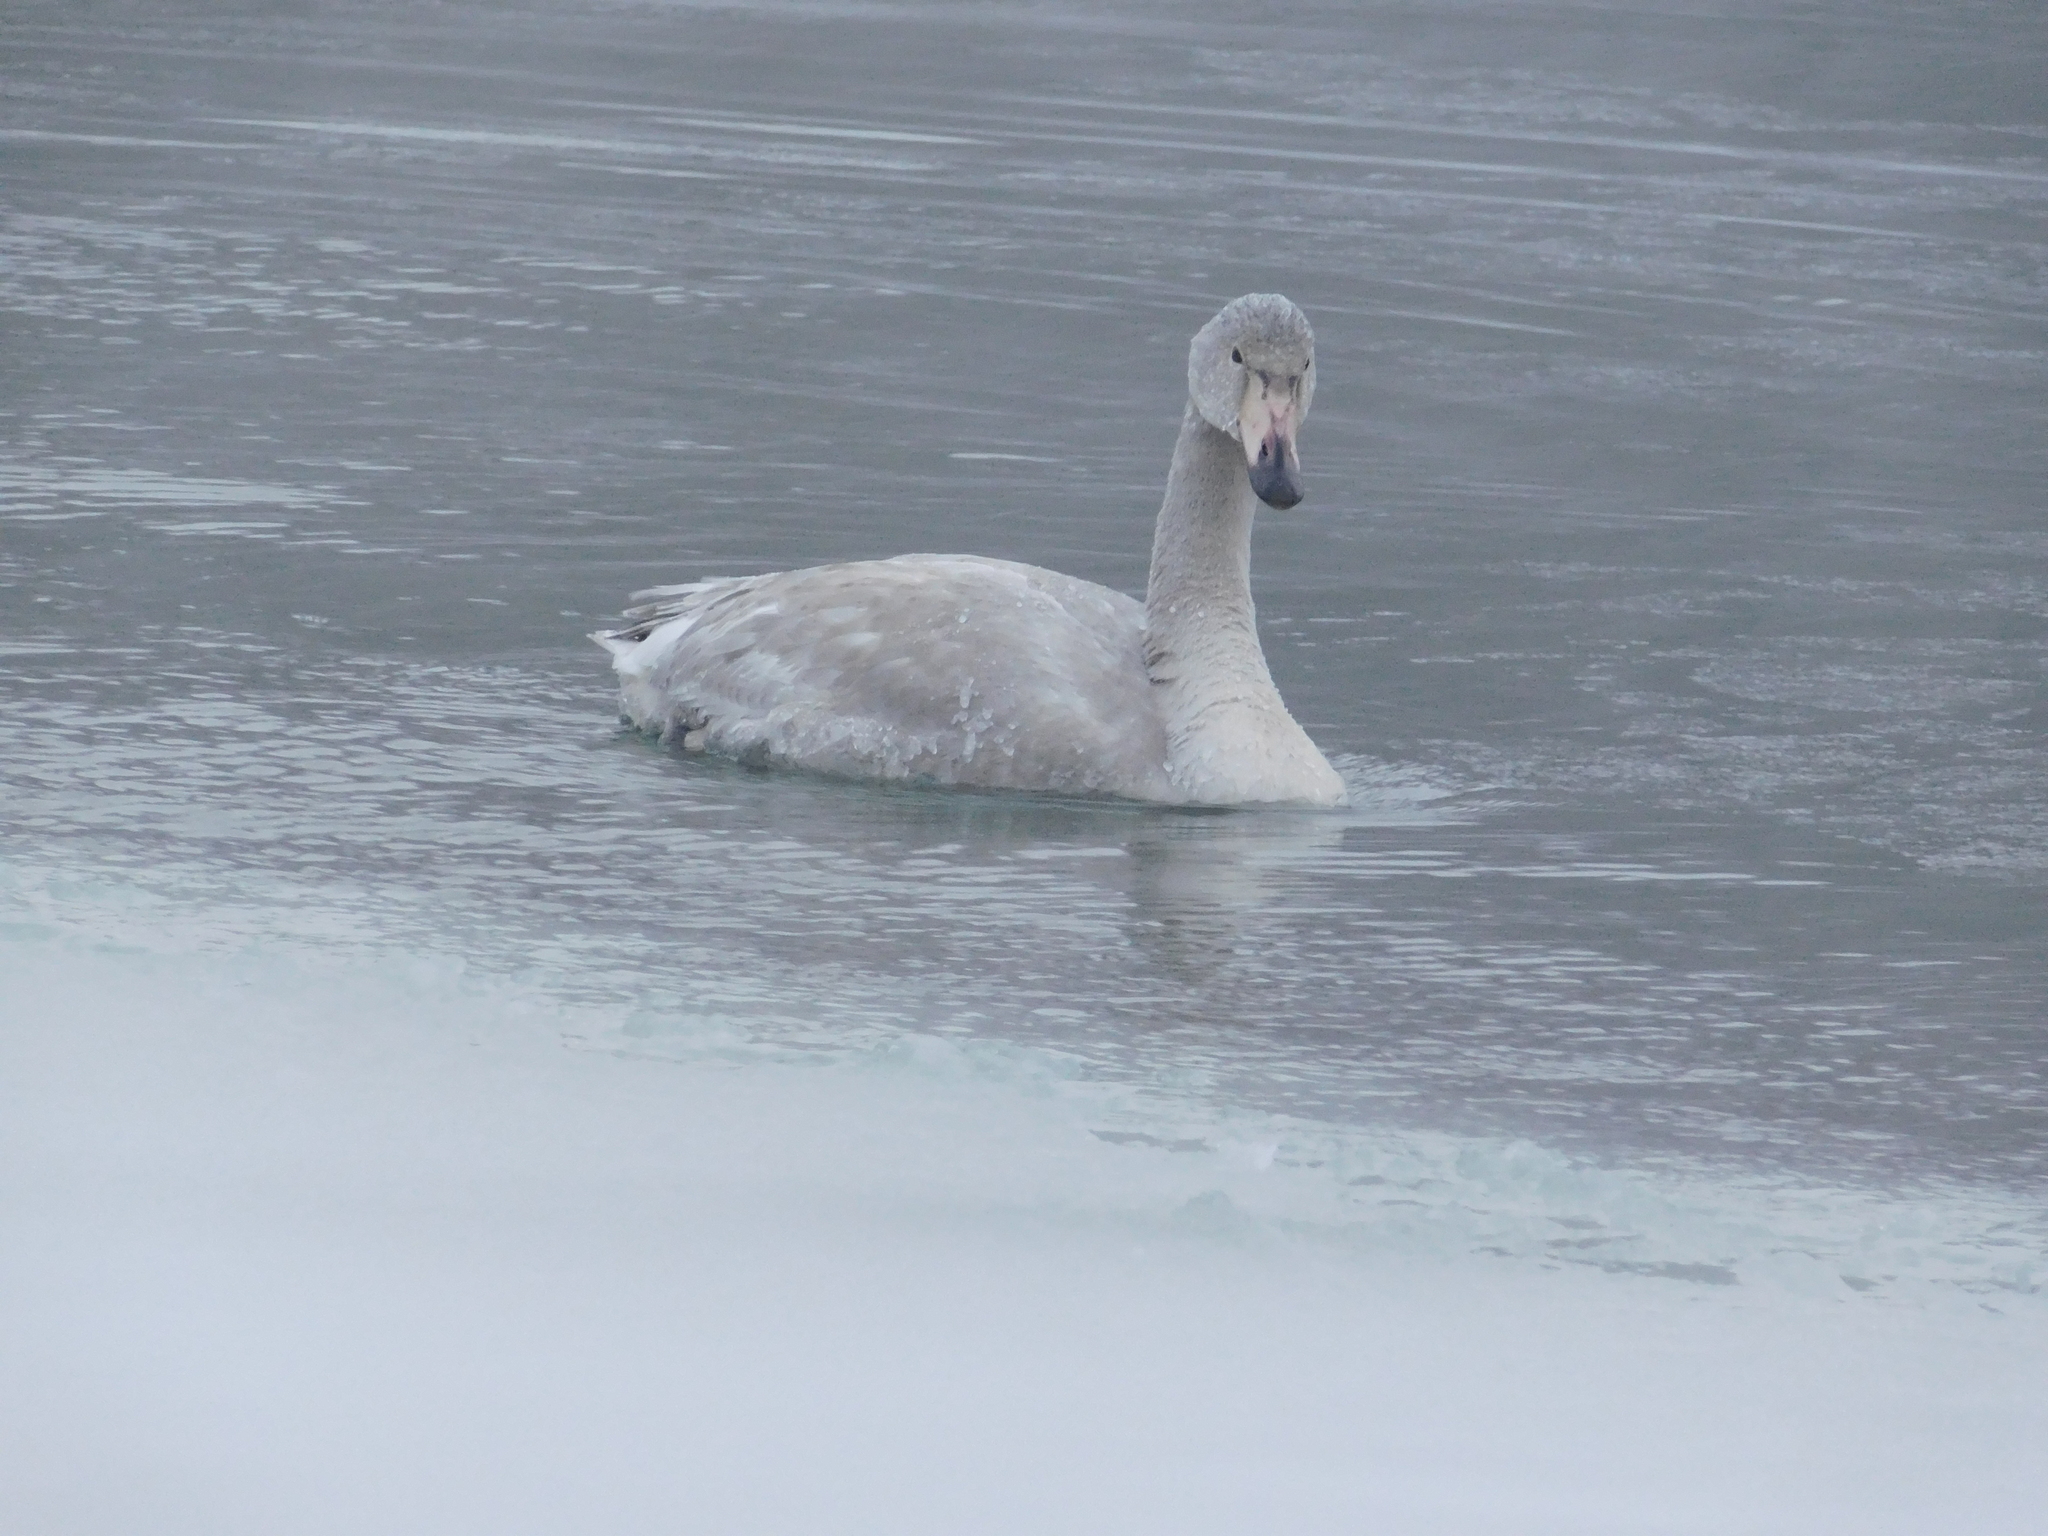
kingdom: Animalia
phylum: Chordata
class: Aves
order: Anseriformes
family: Anatidae
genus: Cygnus
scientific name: Cygnus cygnus
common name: Whooper swan
